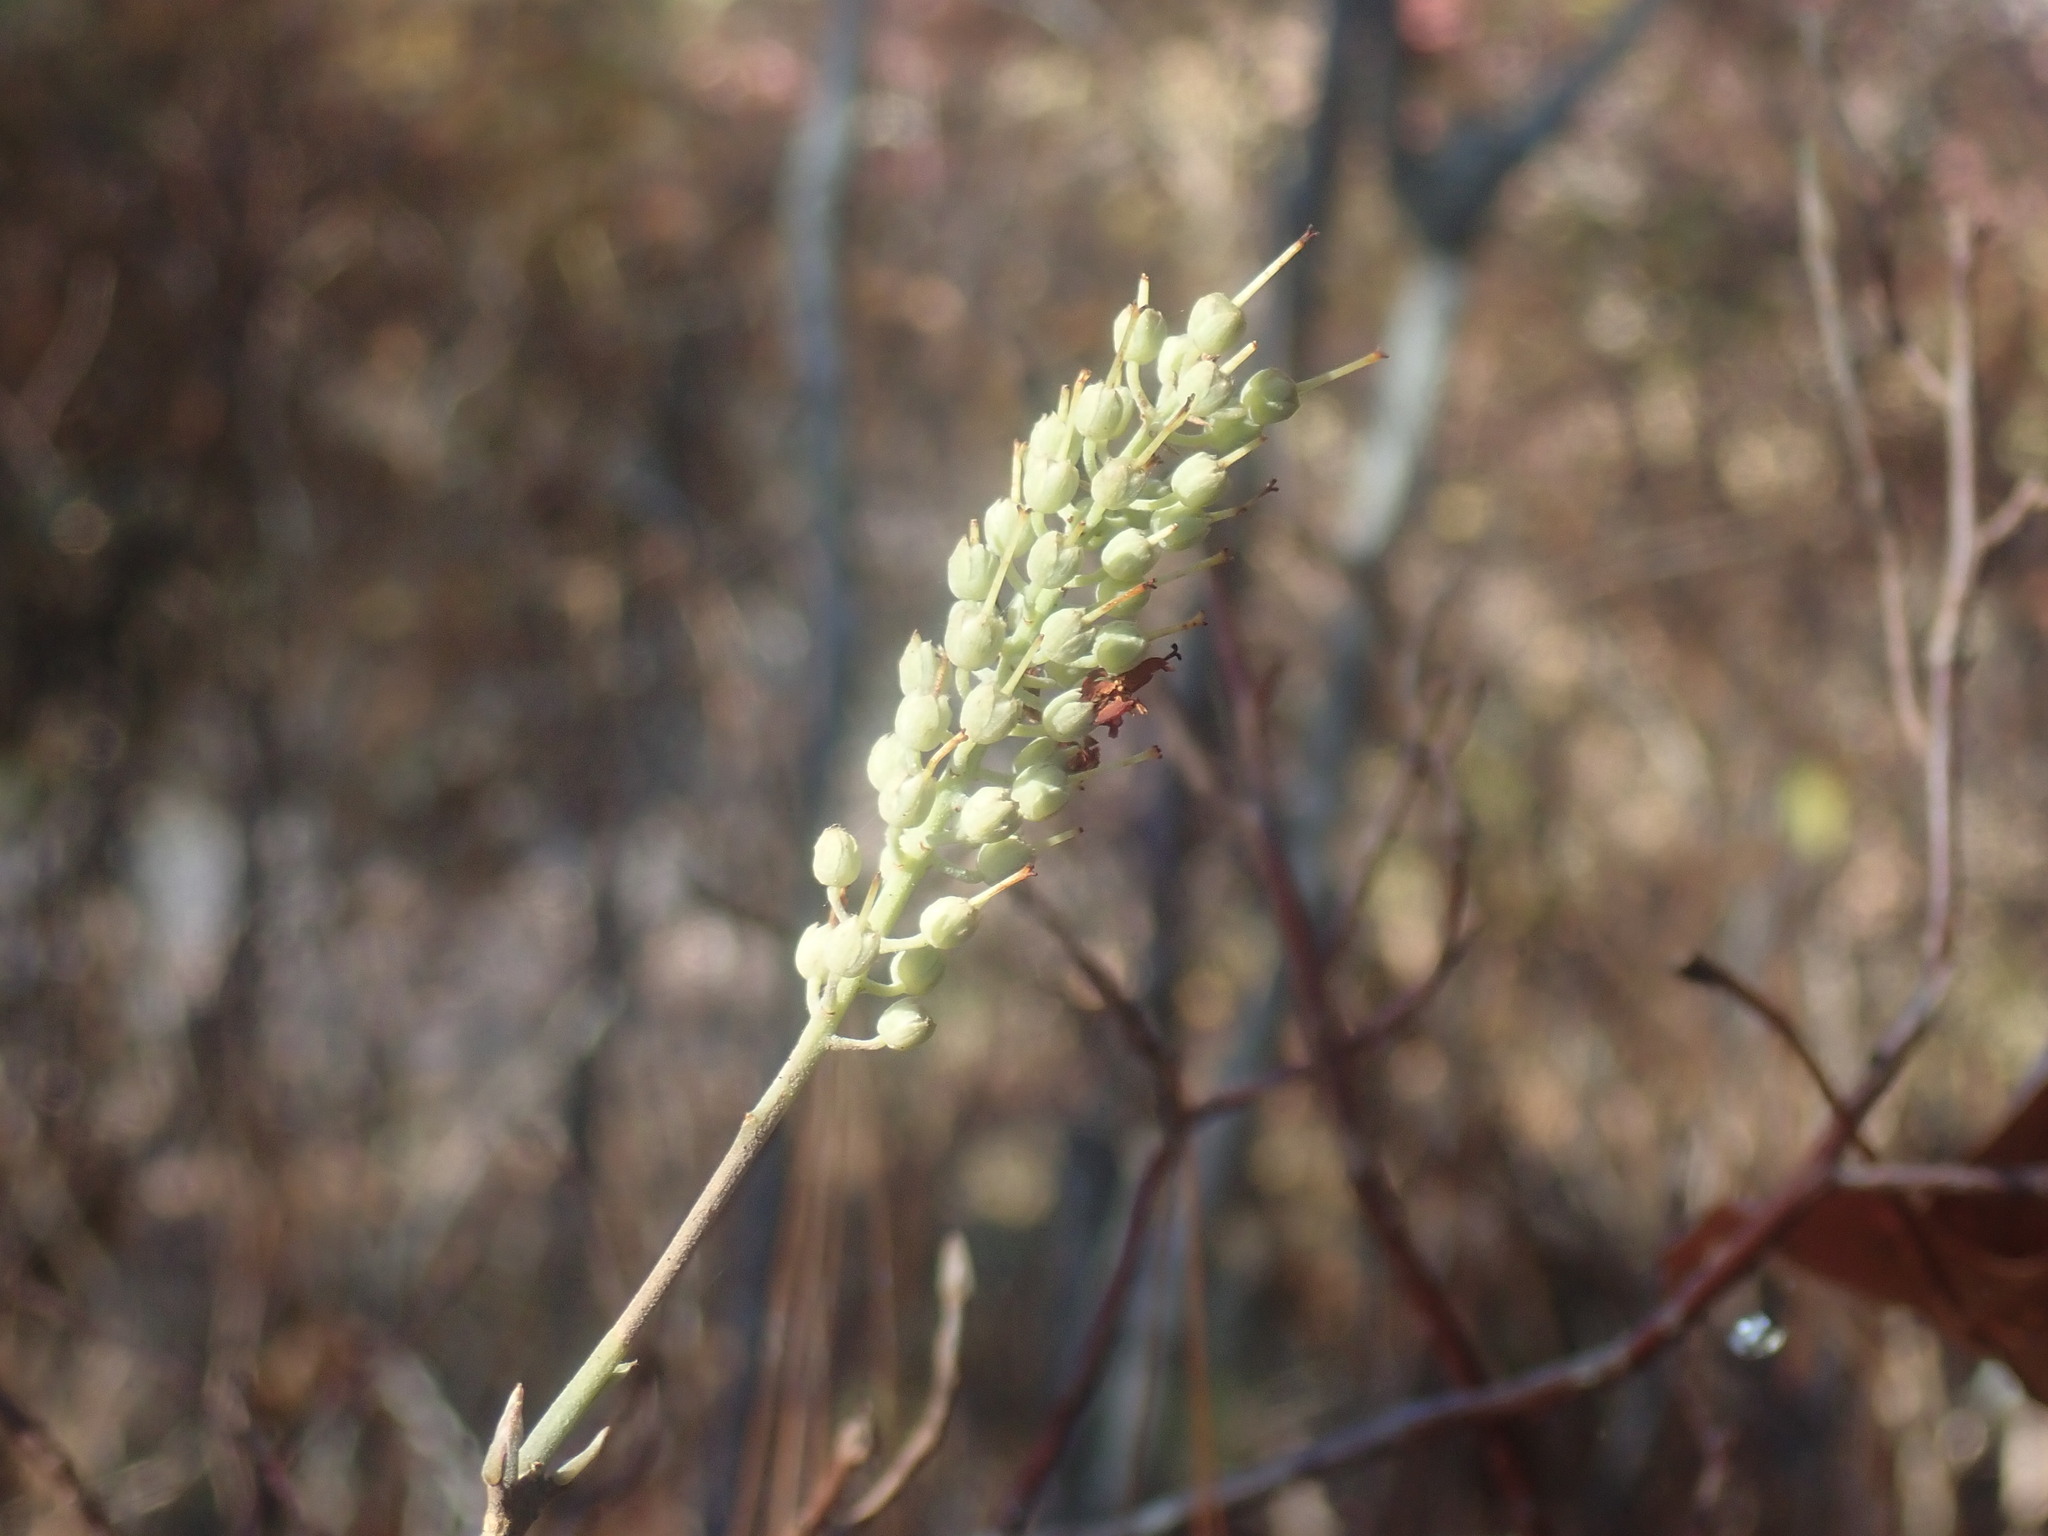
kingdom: Plantae
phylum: Tracheophyta
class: Magnoliopsida
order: Ericales
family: Clethraceae
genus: Clethra
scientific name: Clethra alnifolia
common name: Sweet pepperbush
